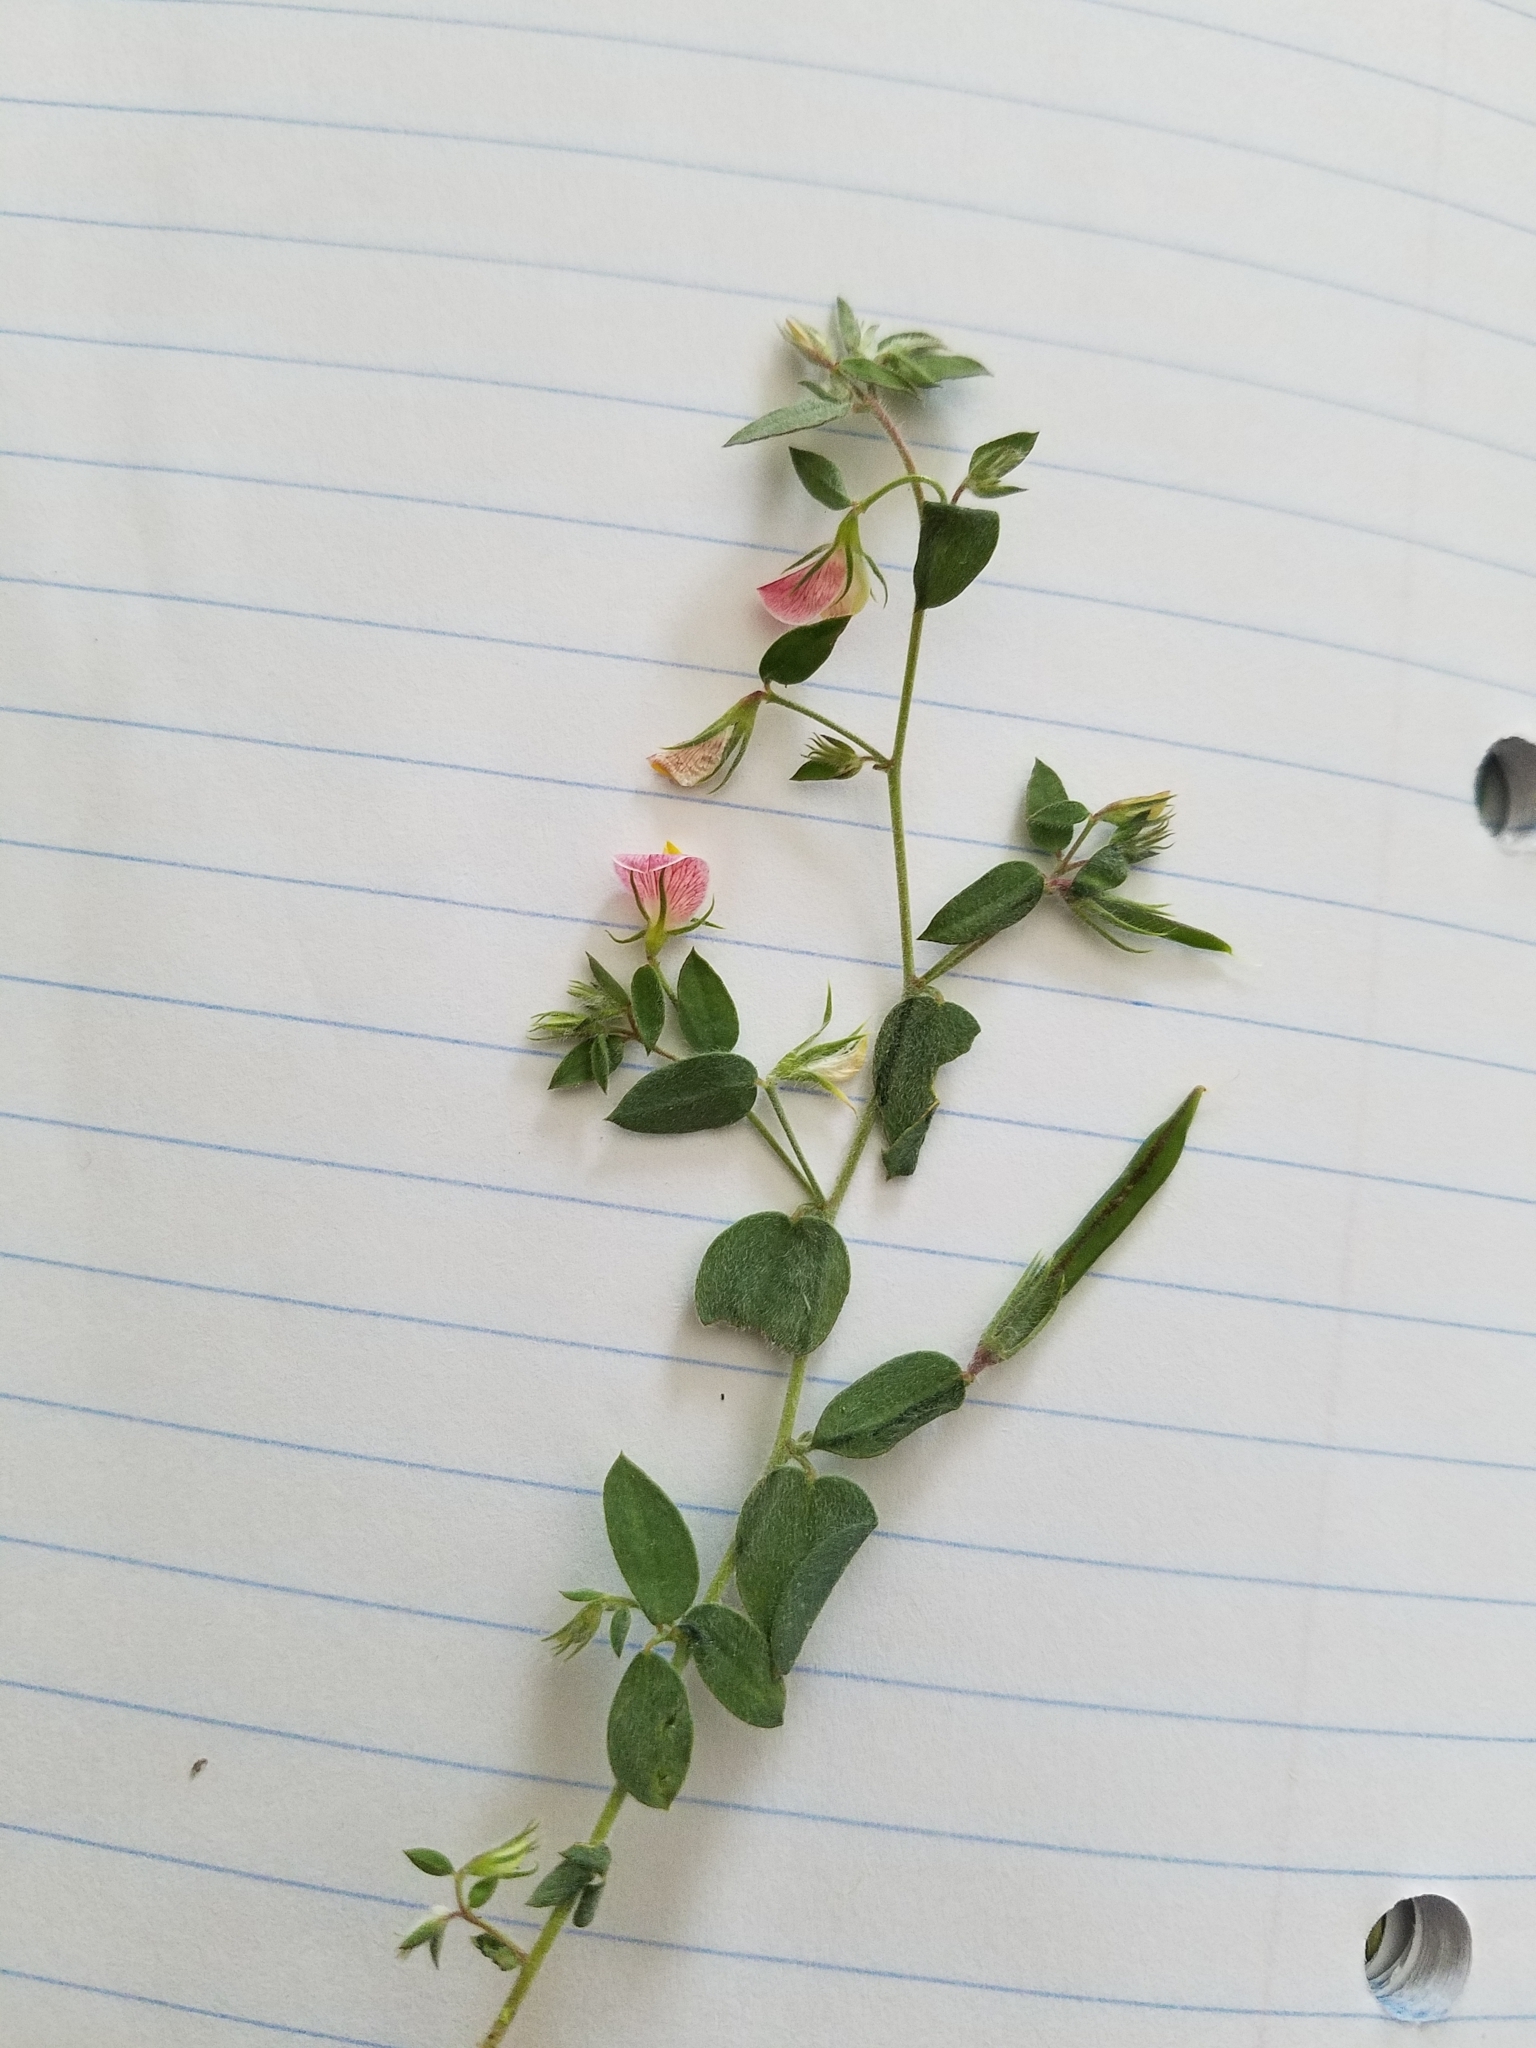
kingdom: Plantae
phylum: Tracheophyta
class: Magnoliopsida
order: Fabales
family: Fabaceae
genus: Acmispon
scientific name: Acmispon americanus
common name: American bird's-foot trefoil
